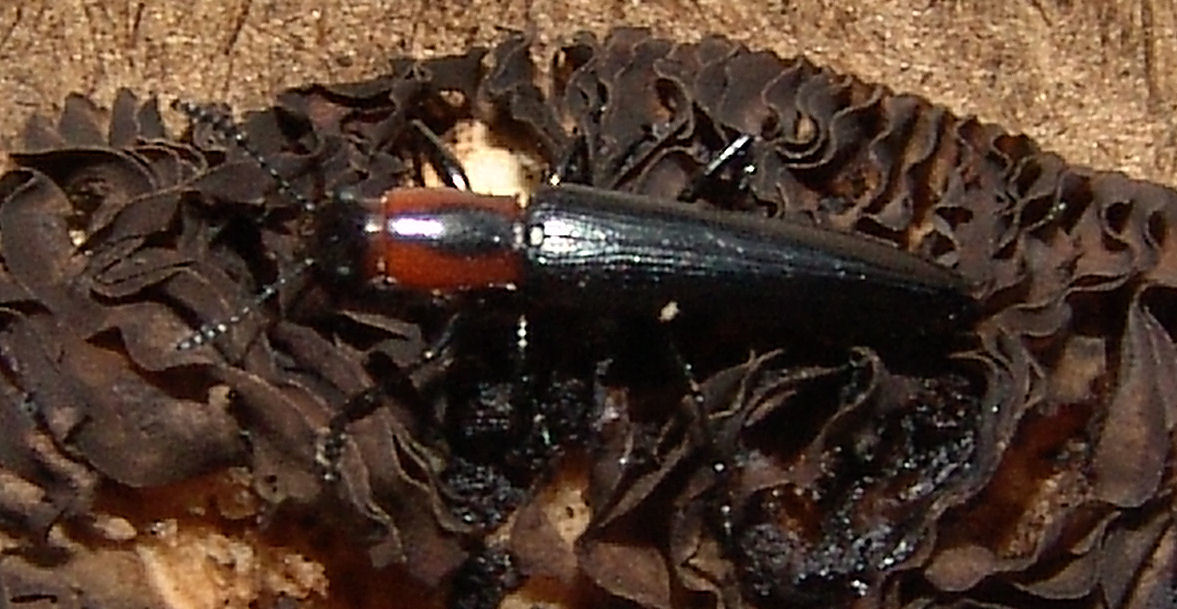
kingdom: Animalia
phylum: Arthropoda
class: Insecta
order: Coleoptera
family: Erotylidae
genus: Acropteroxys
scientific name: Acropteroxys gracilis
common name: Slender lizard beetle
